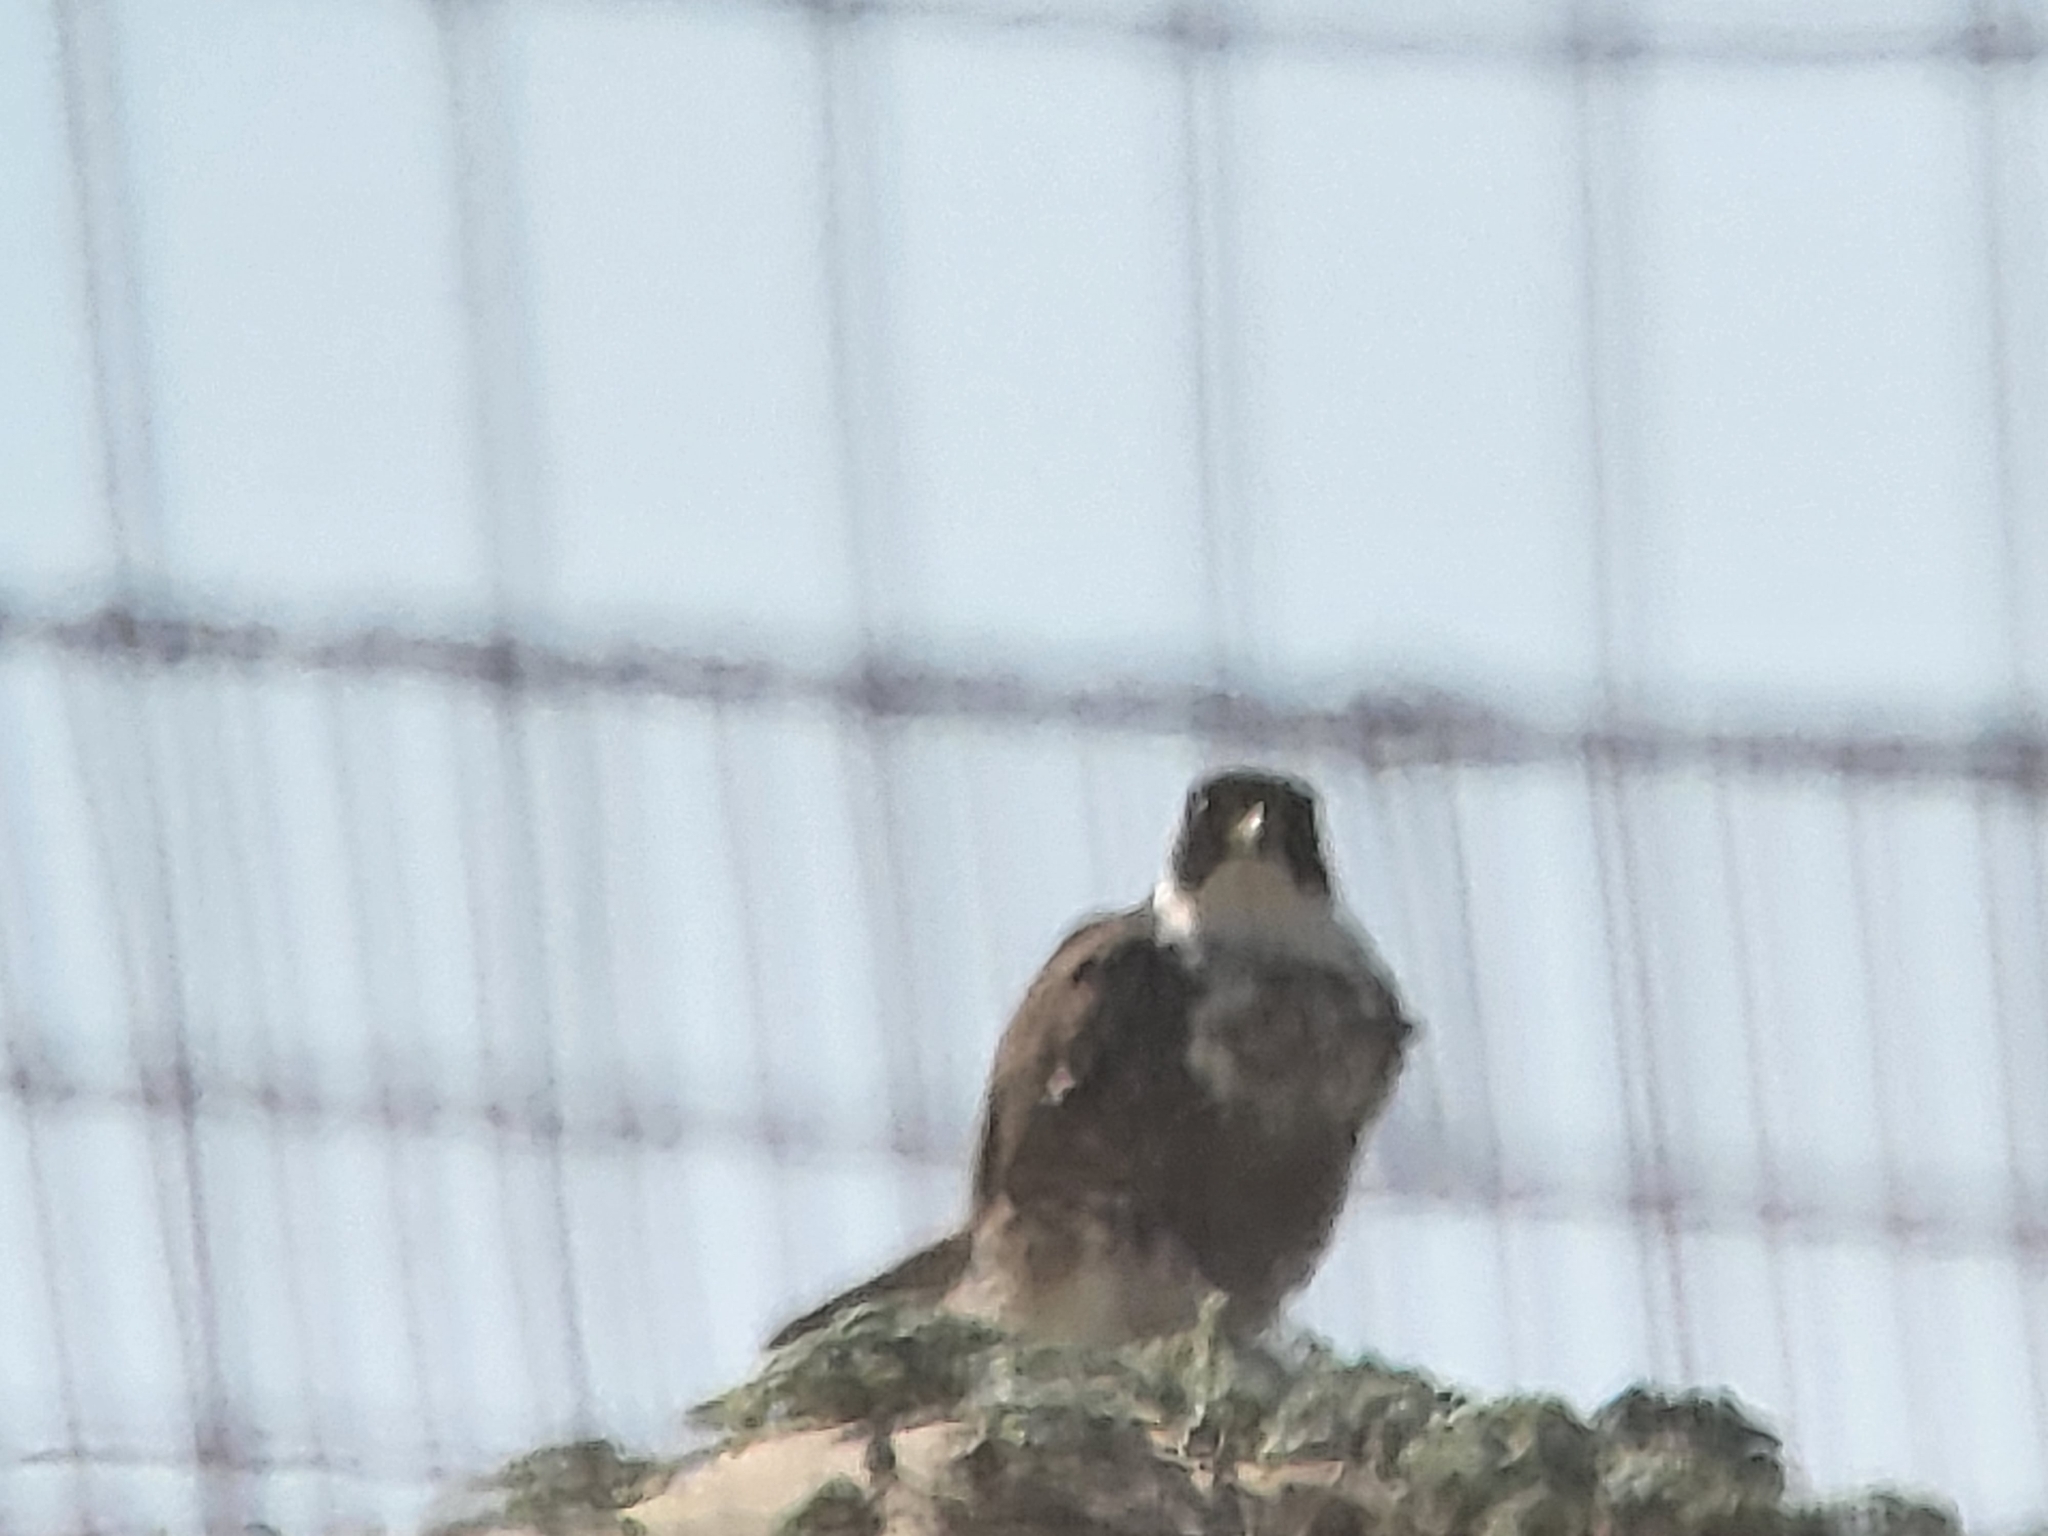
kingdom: Animalia
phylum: Chordata
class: Aves
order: Falconiformes
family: Falconidae
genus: Falco
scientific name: Falco peregrinus
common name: Peregrine falcon
